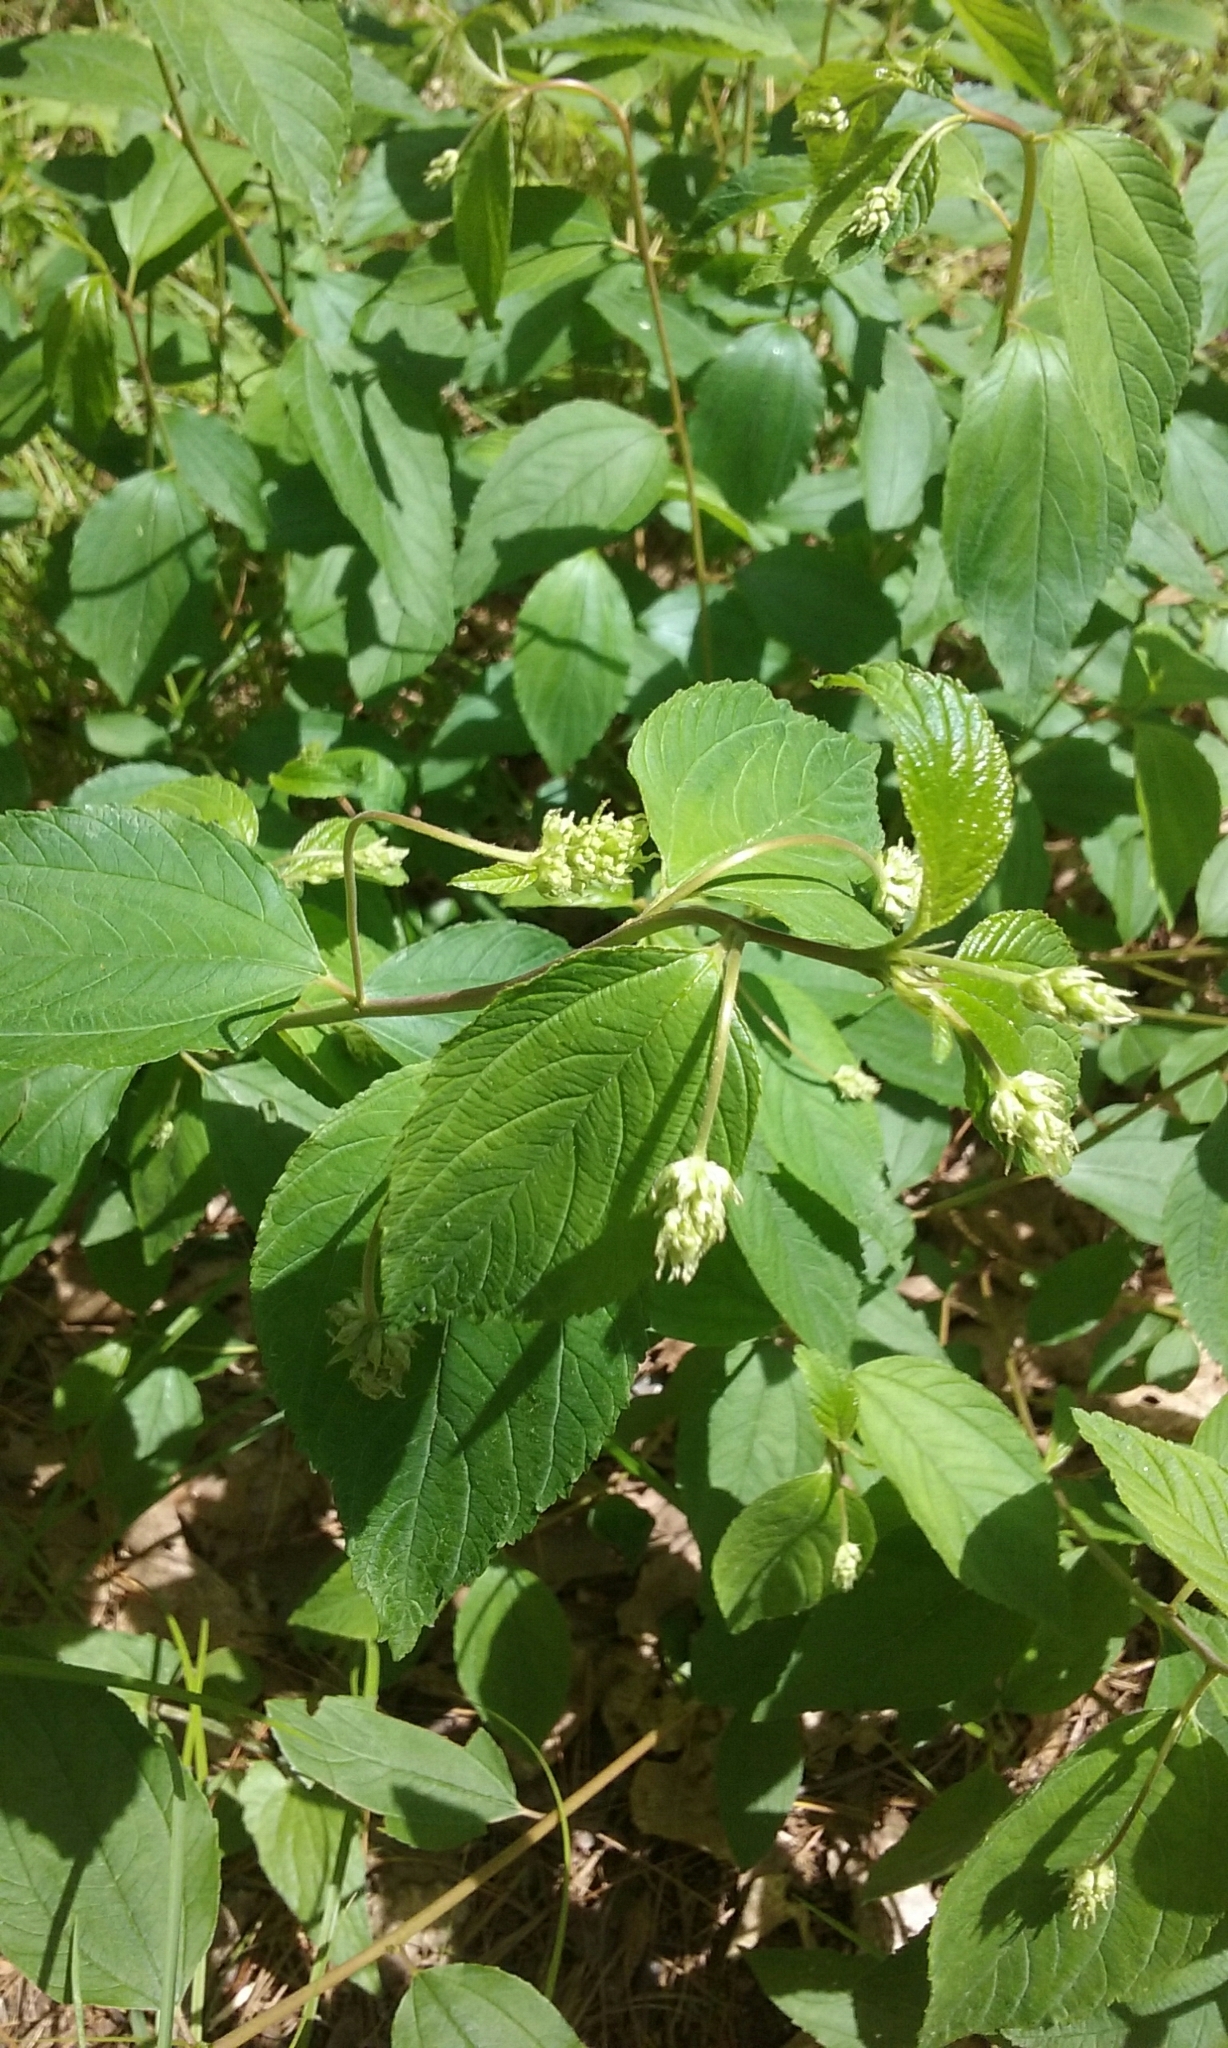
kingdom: Plantae
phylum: Tracheophyta
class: Magnoliopsida
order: Rosales
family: Rhamnaceae
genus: Ceanothus
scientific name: Ceanothus americanus
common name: Redroot
